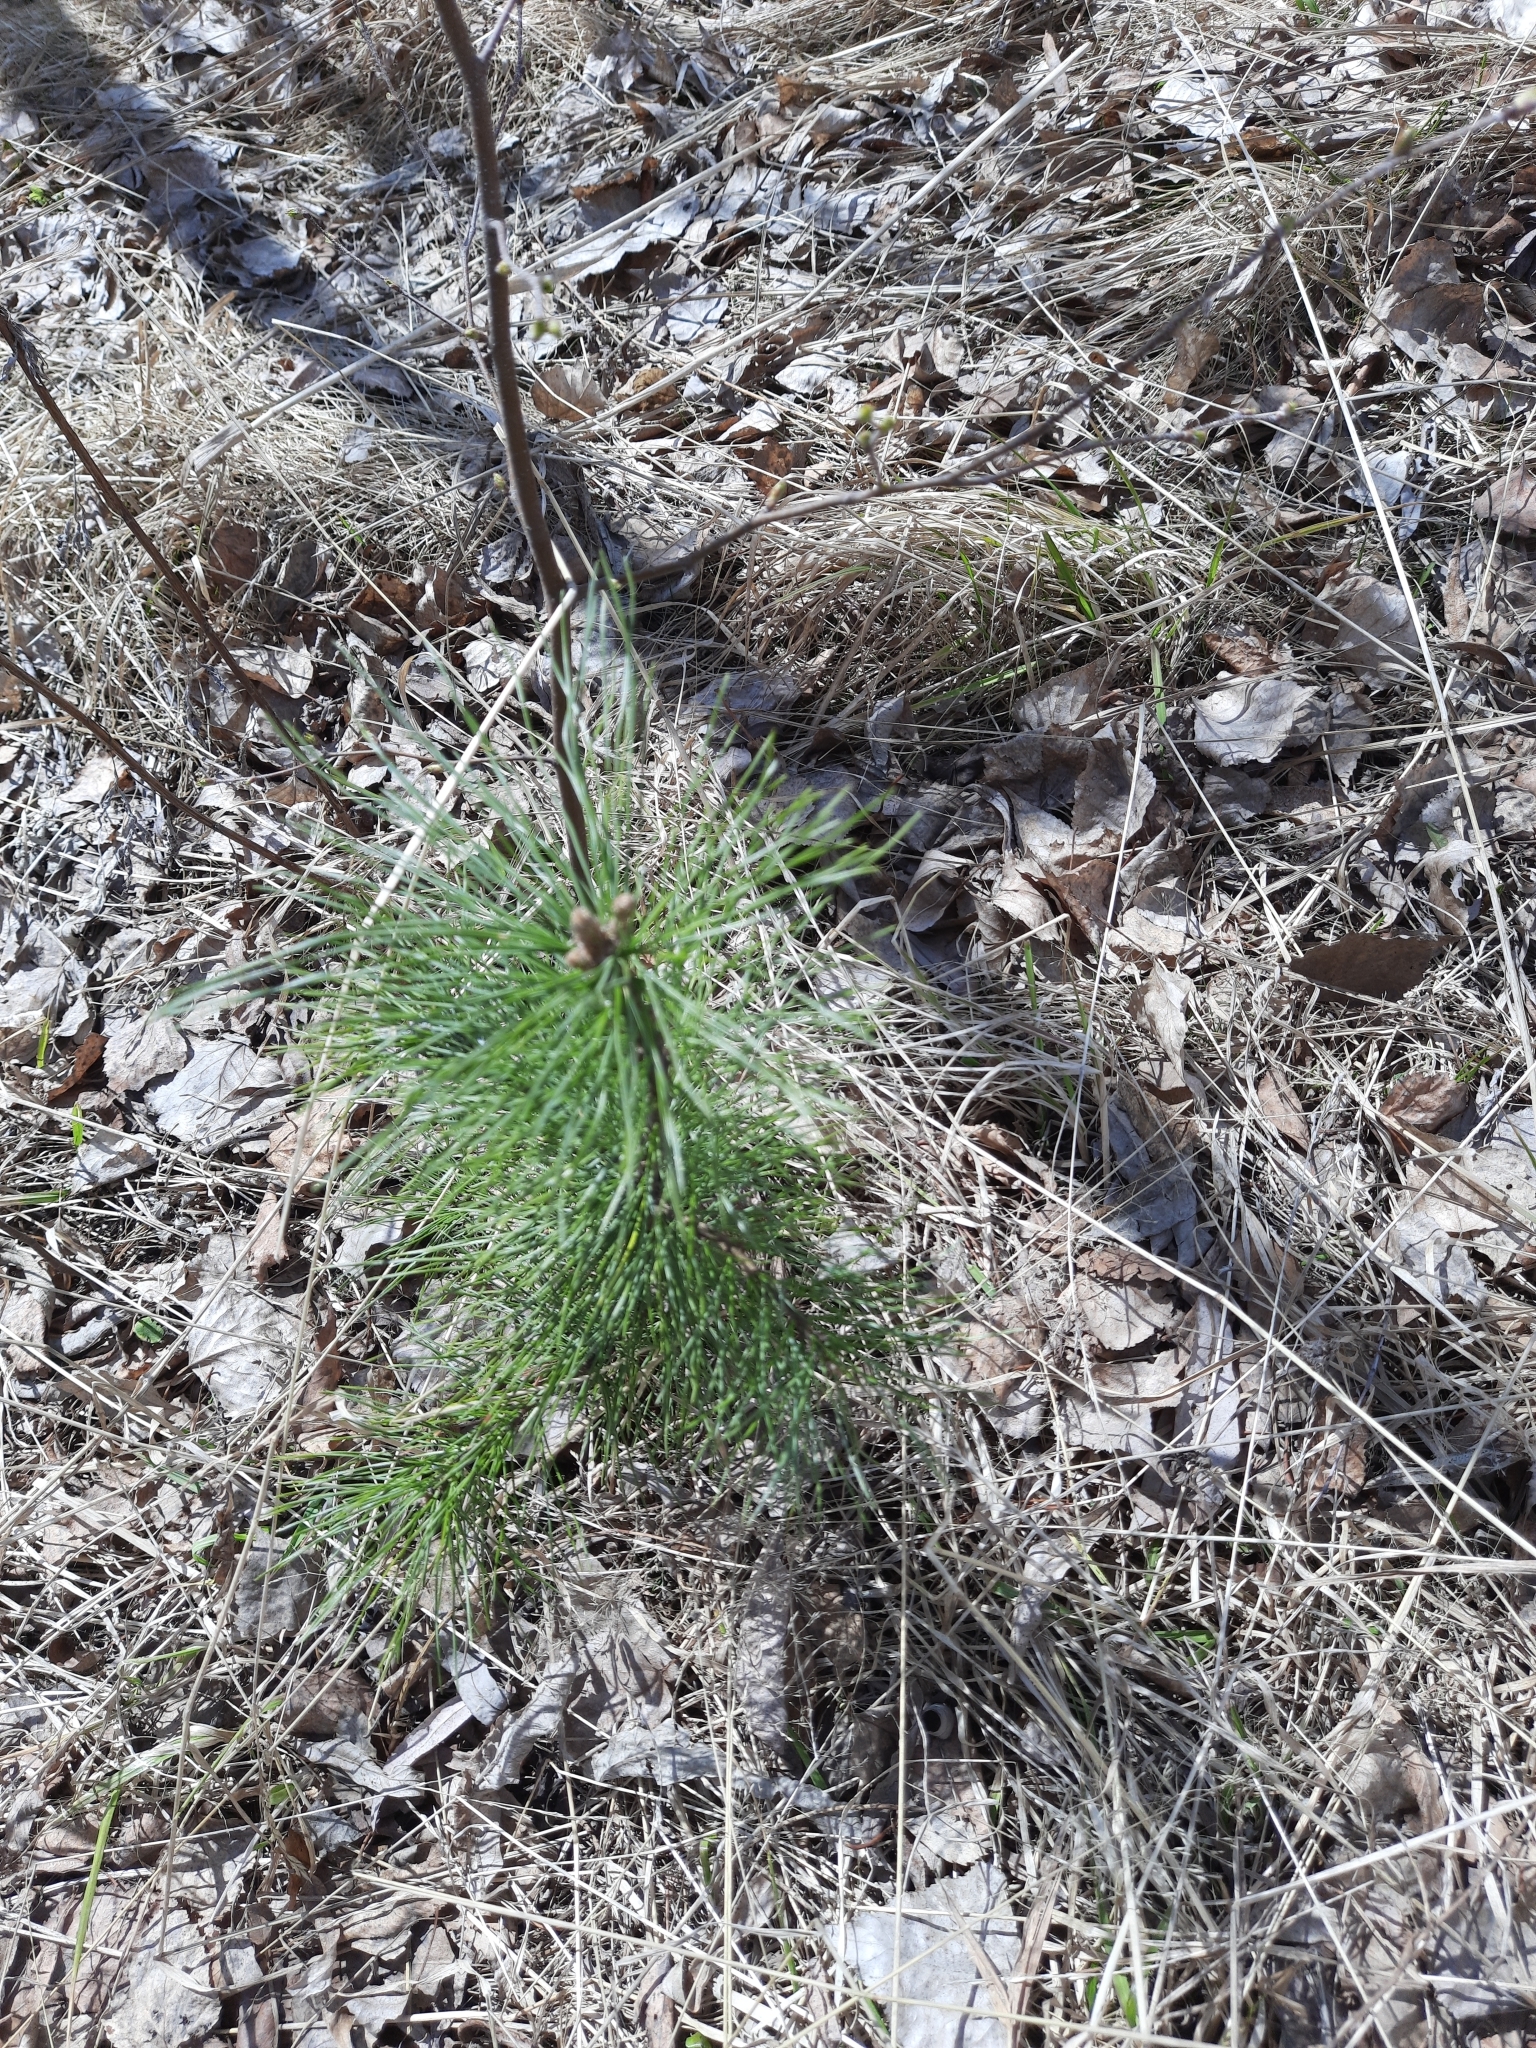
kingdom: Plantae
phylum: Tracheophyta
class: Pinopsida
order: Pinales
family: Pinaceae
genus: Pinus
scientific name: Pinus sibirica
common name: Siberian pine
